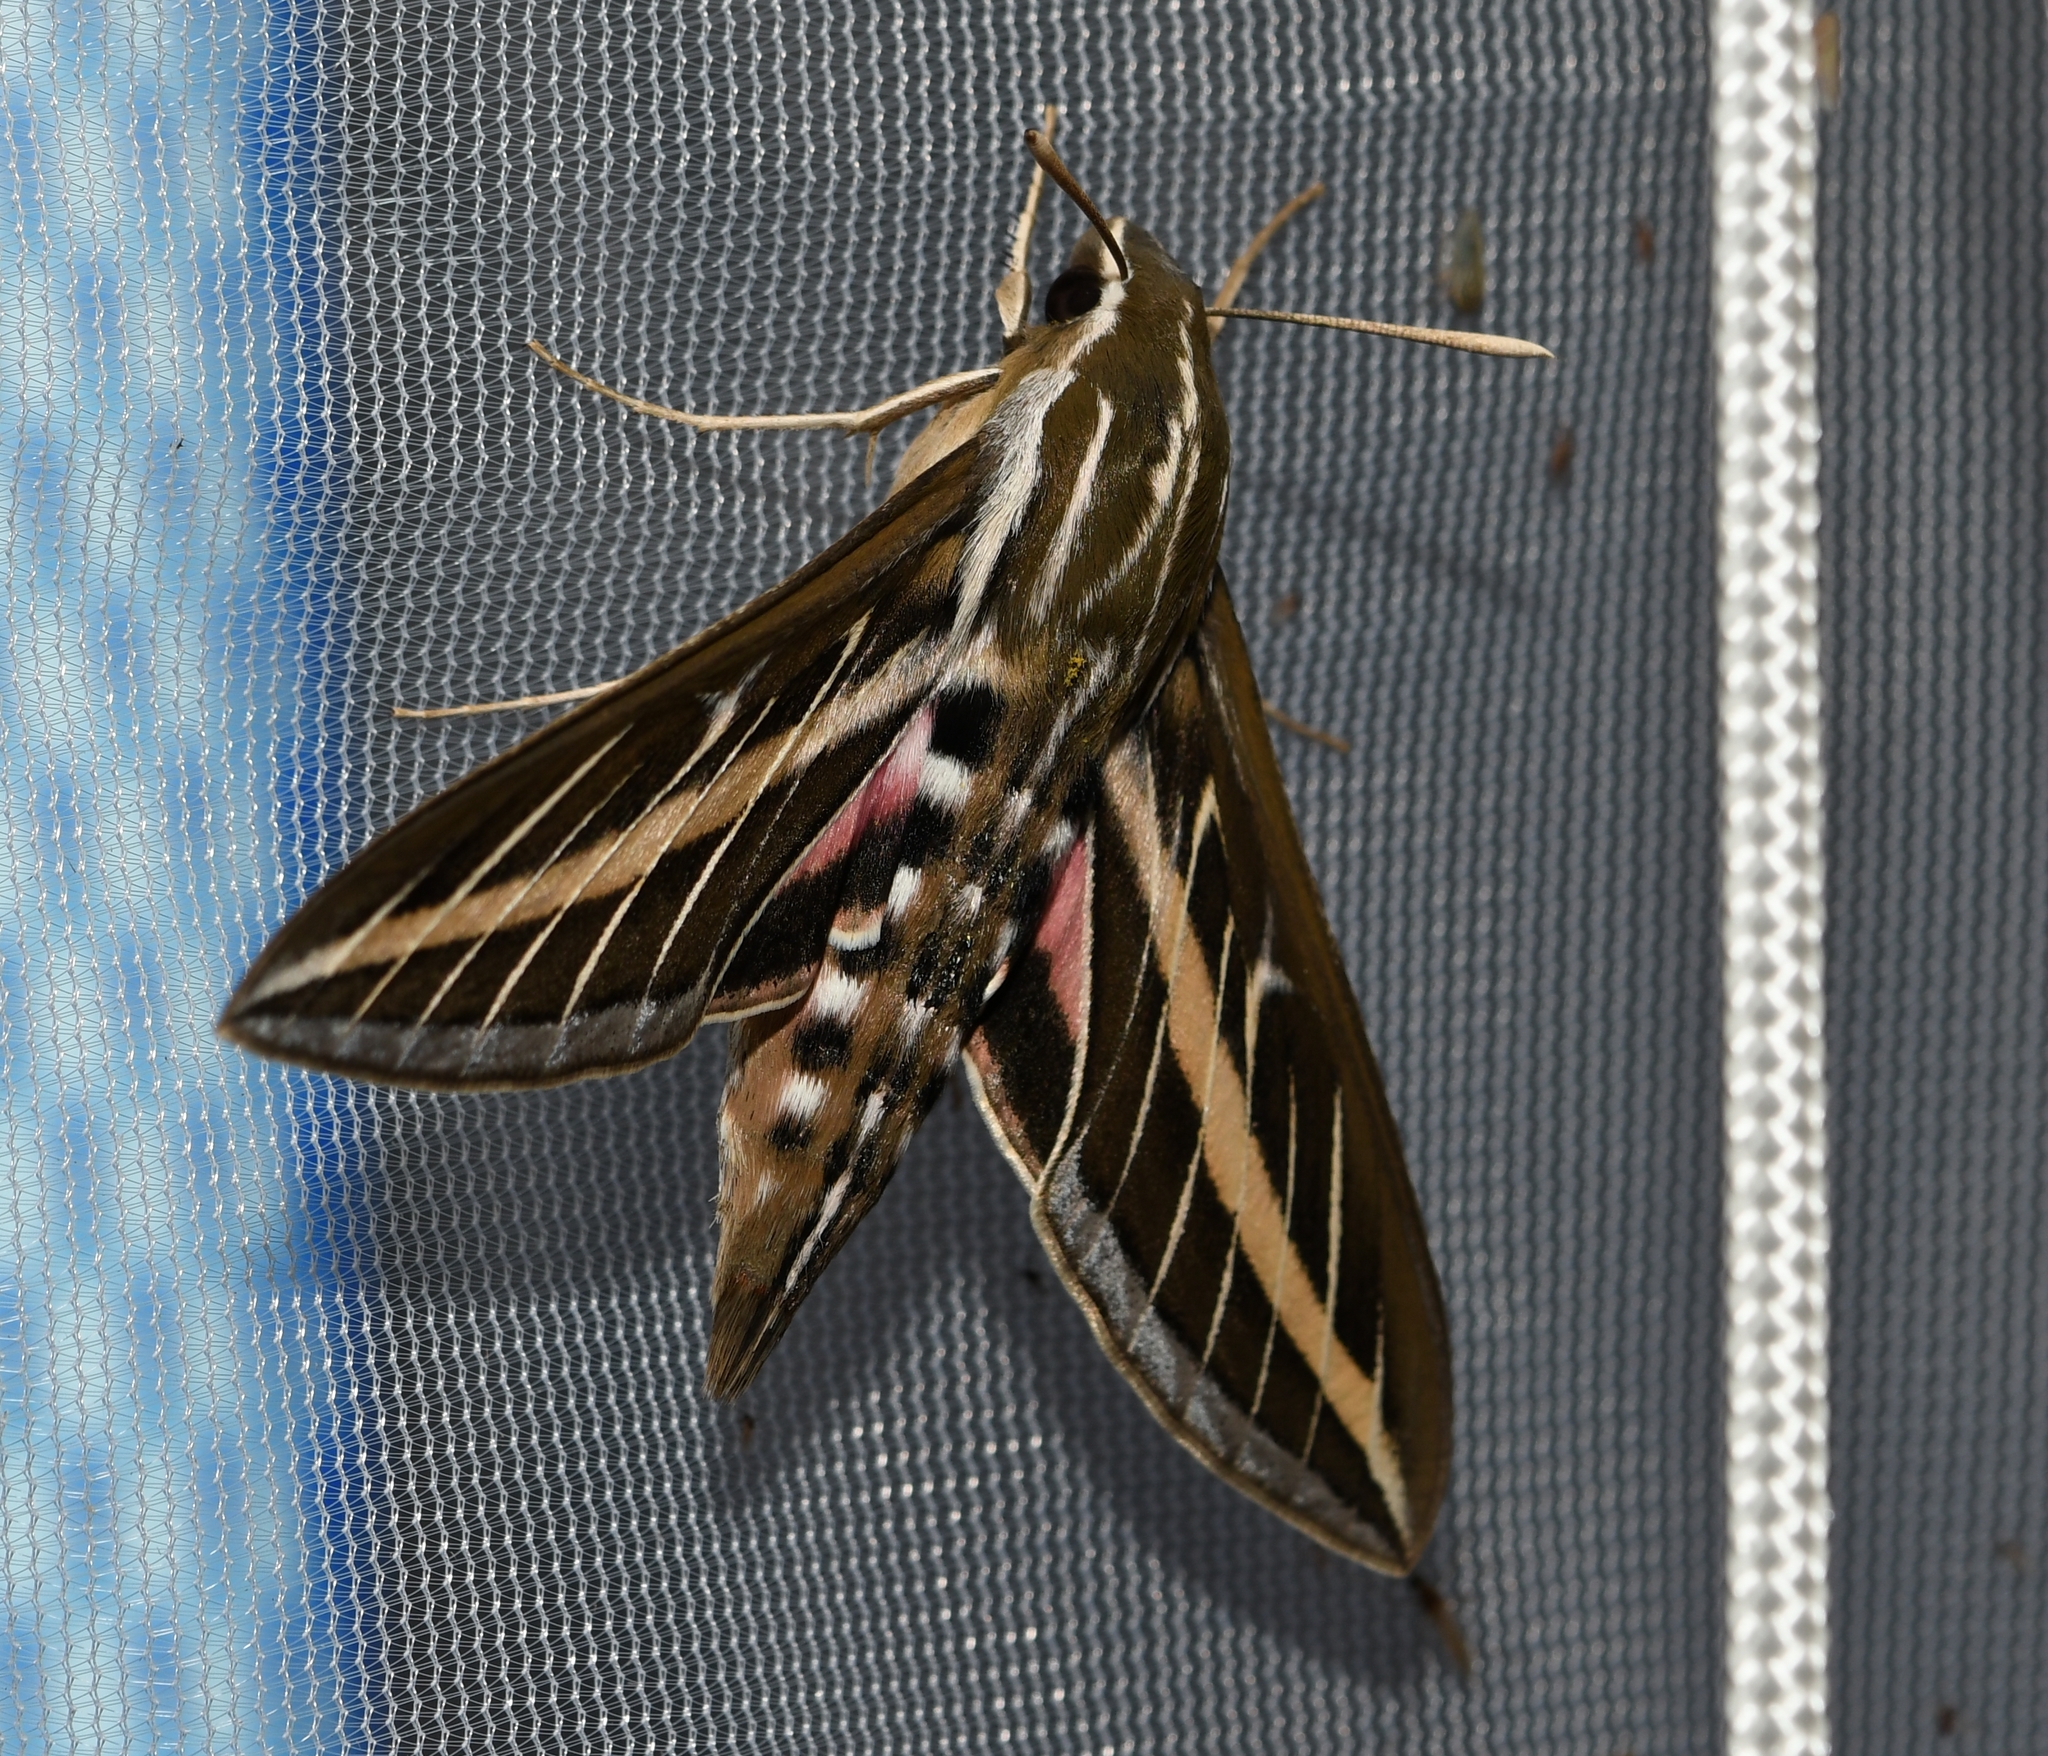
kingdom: Animalia
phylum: Arthropoda
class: Insecta
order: Lepidoptera
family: Sphingidae
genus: Hyles
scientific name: Hyles lineata
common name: White-lined sphinx
